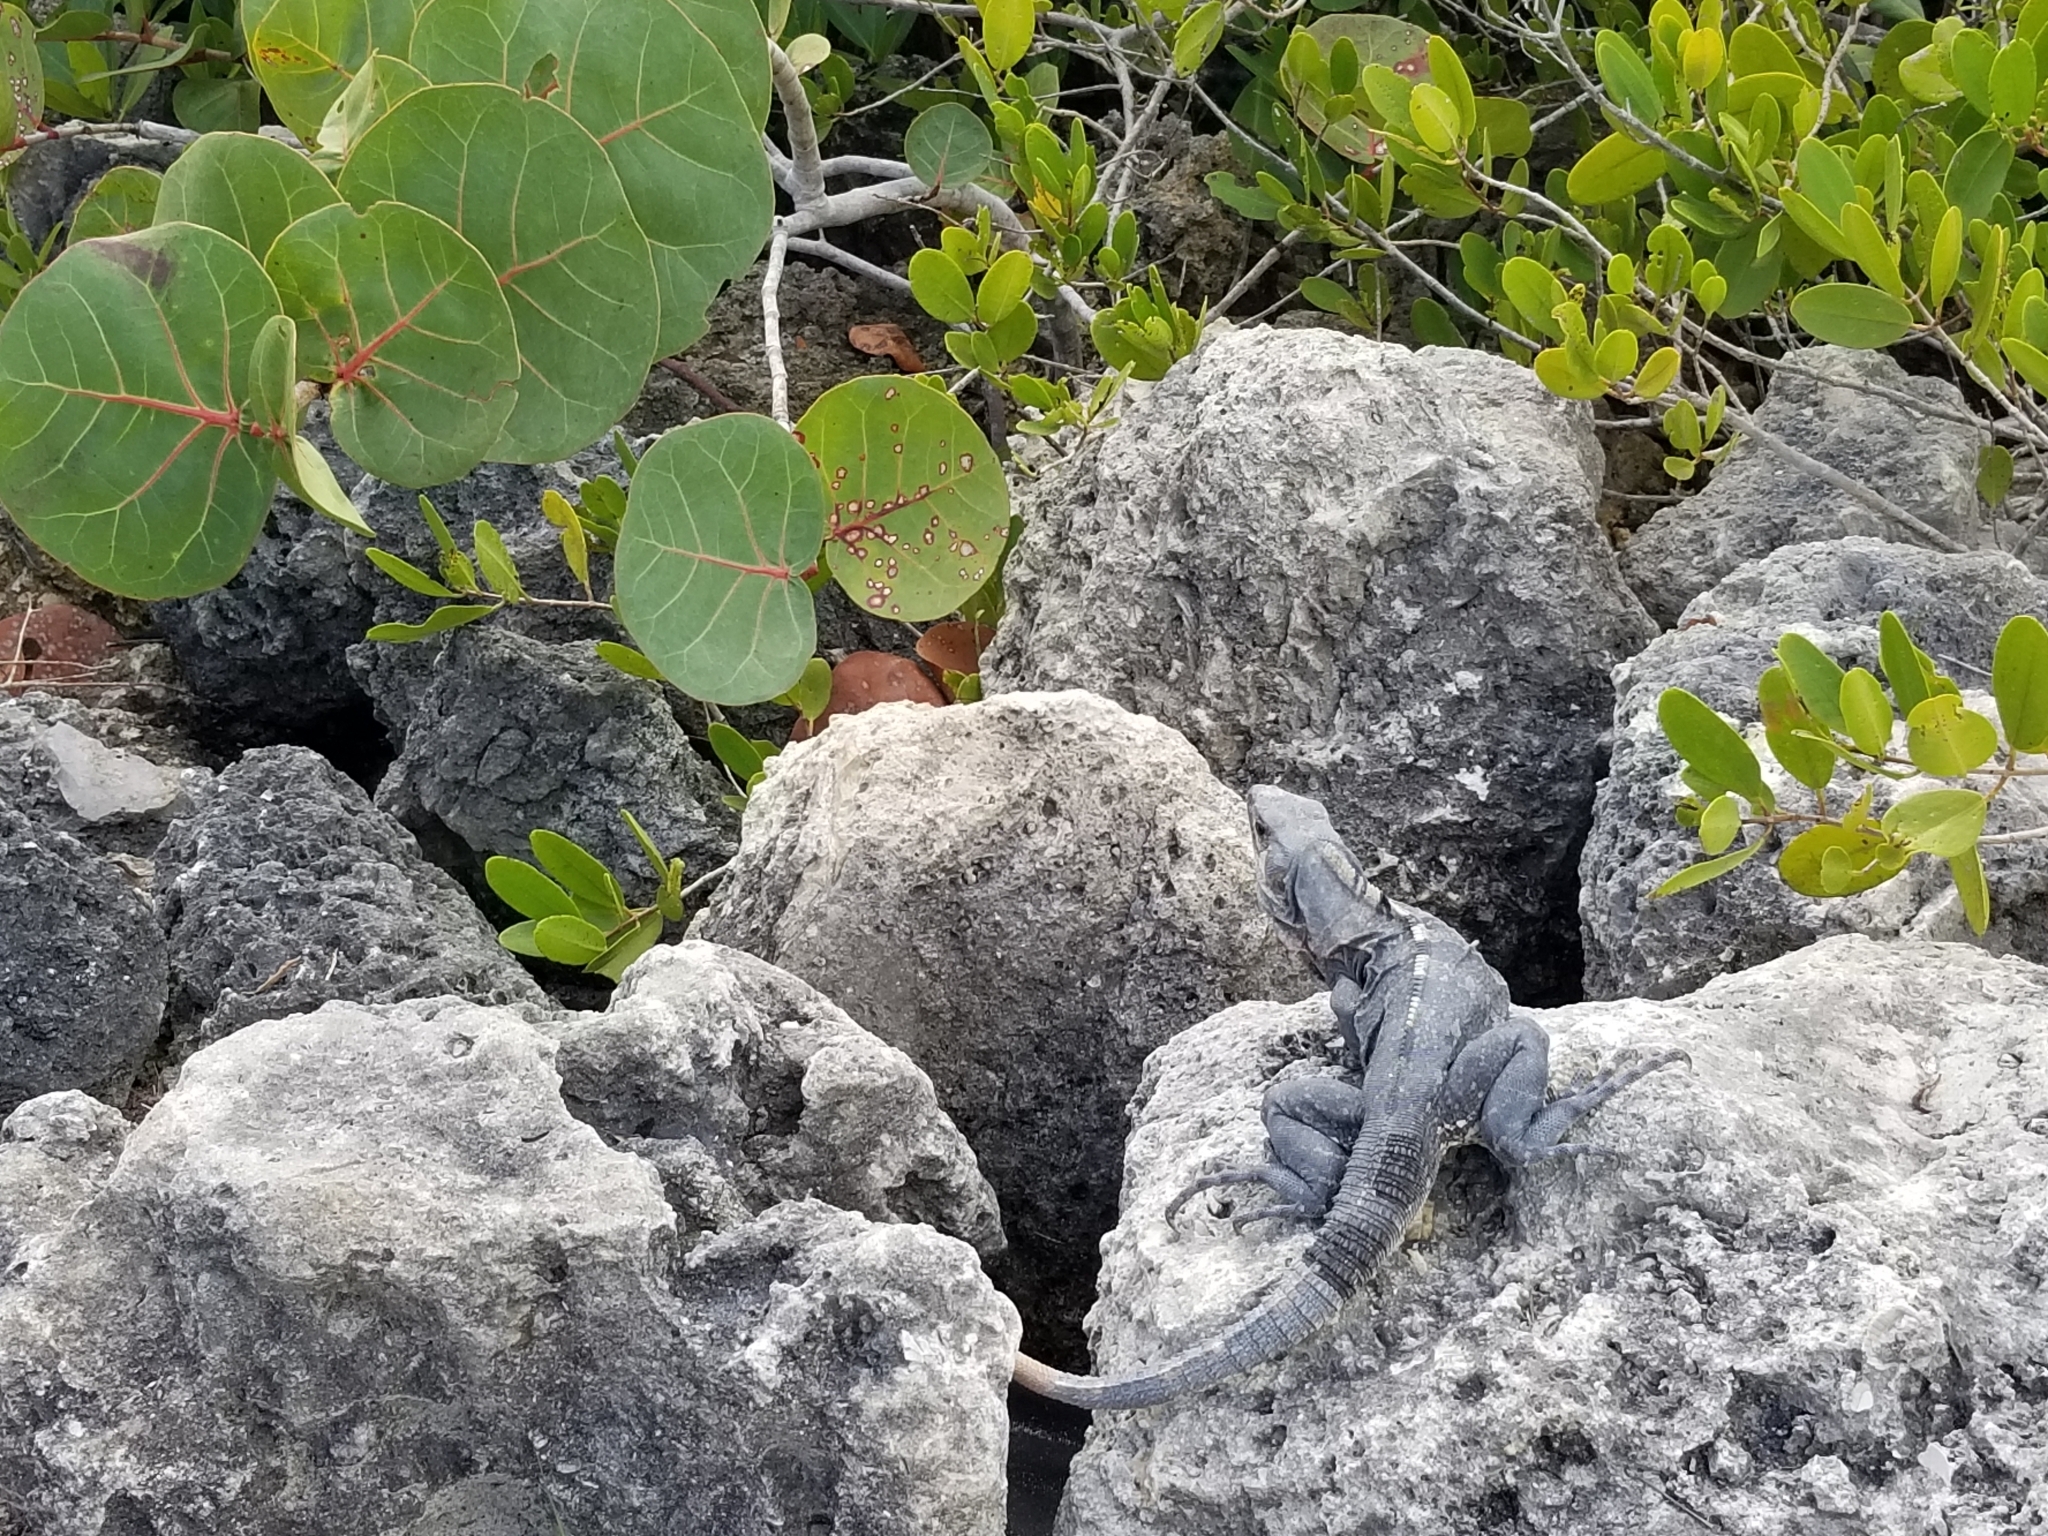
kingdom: Animalia
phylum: Chordata
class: Squamata
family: Iguanidae
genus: Ctenosaura
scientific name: Ctenosaura similis
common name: Black spiny-tailed iguana
